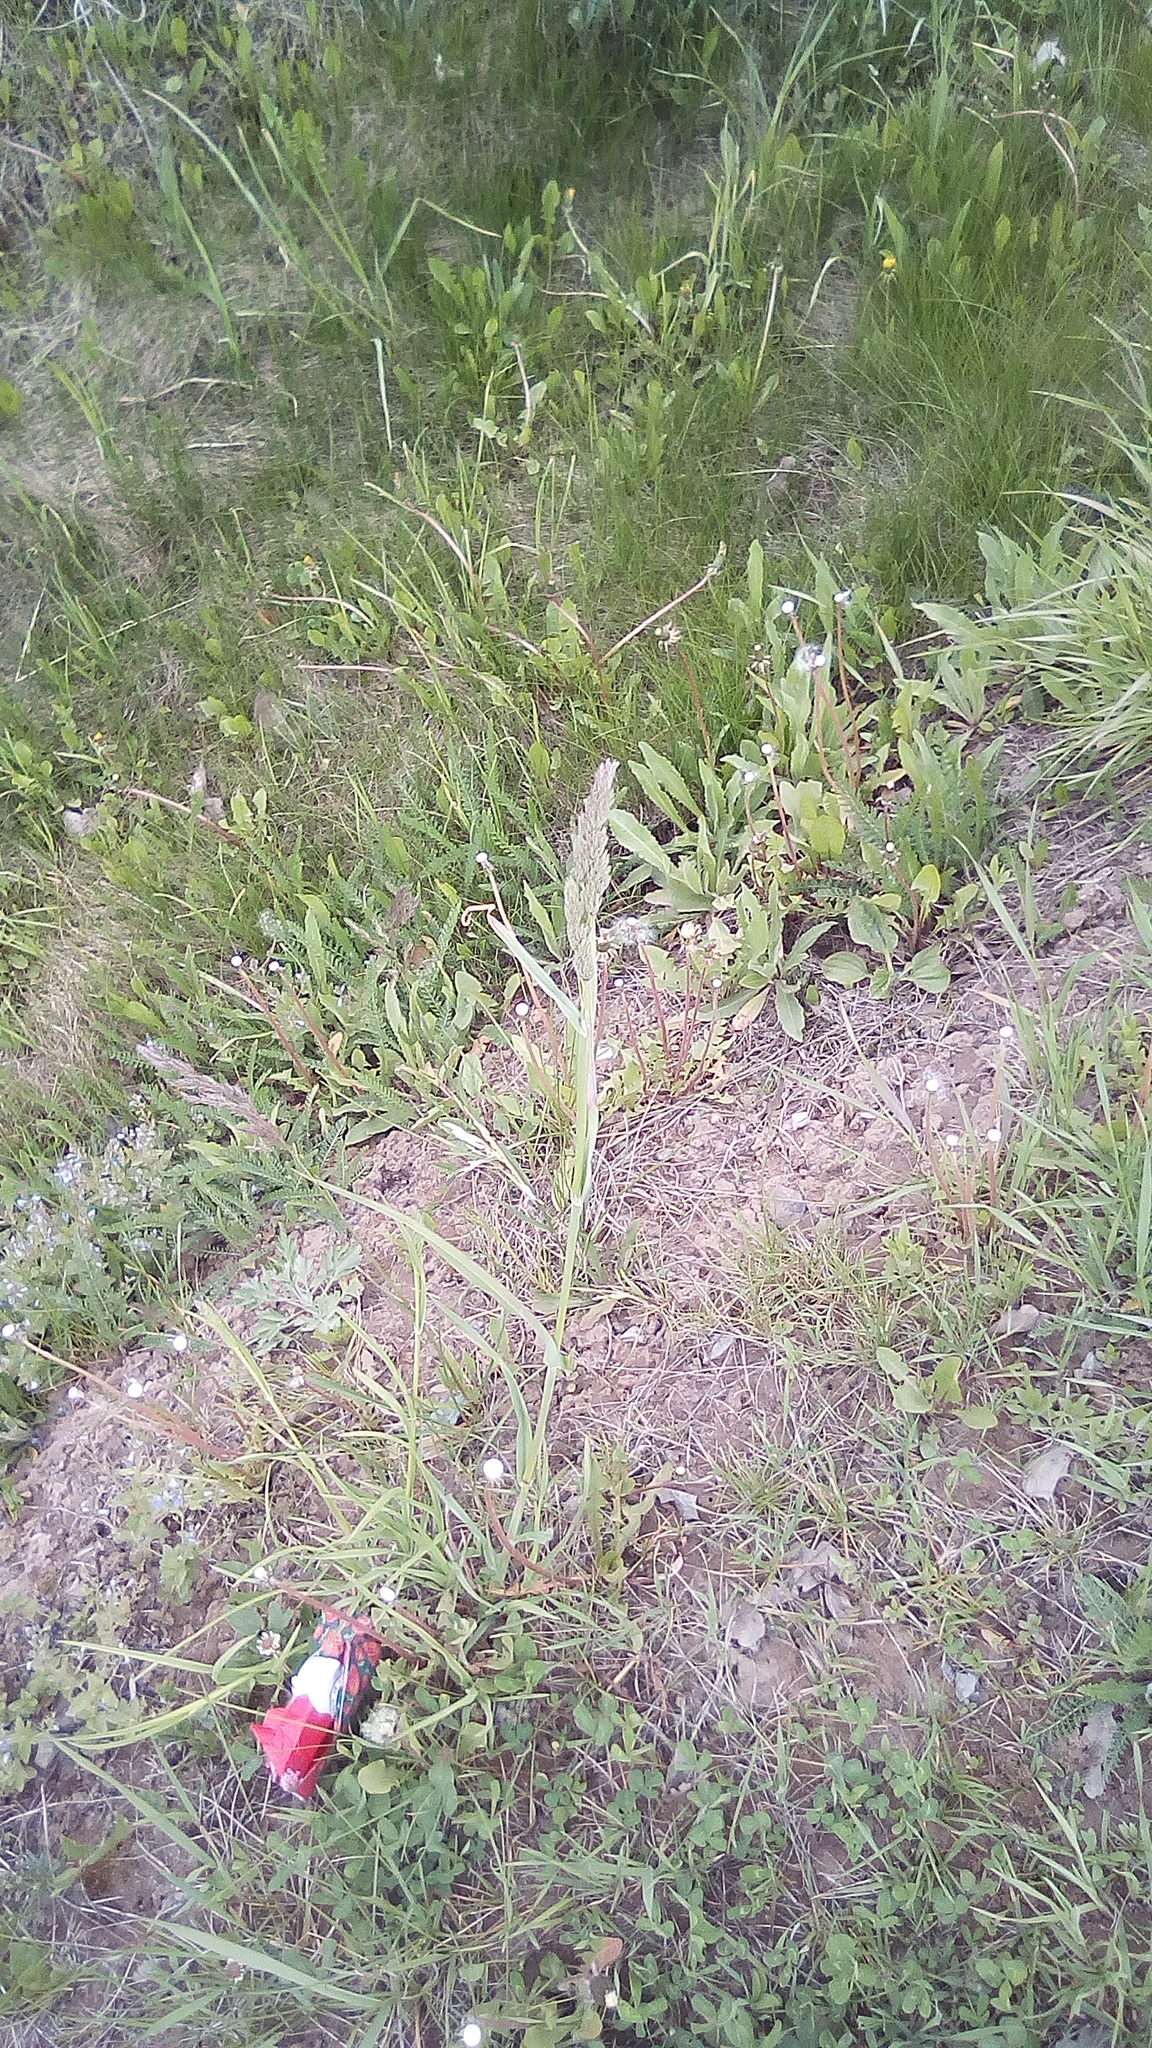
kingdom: Plantae
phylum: Tracheophyta
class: Liliopsida
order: Poales
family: Poaceae
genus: Dactylis
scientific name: Dactylis glomerata
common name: Orchardgrass
